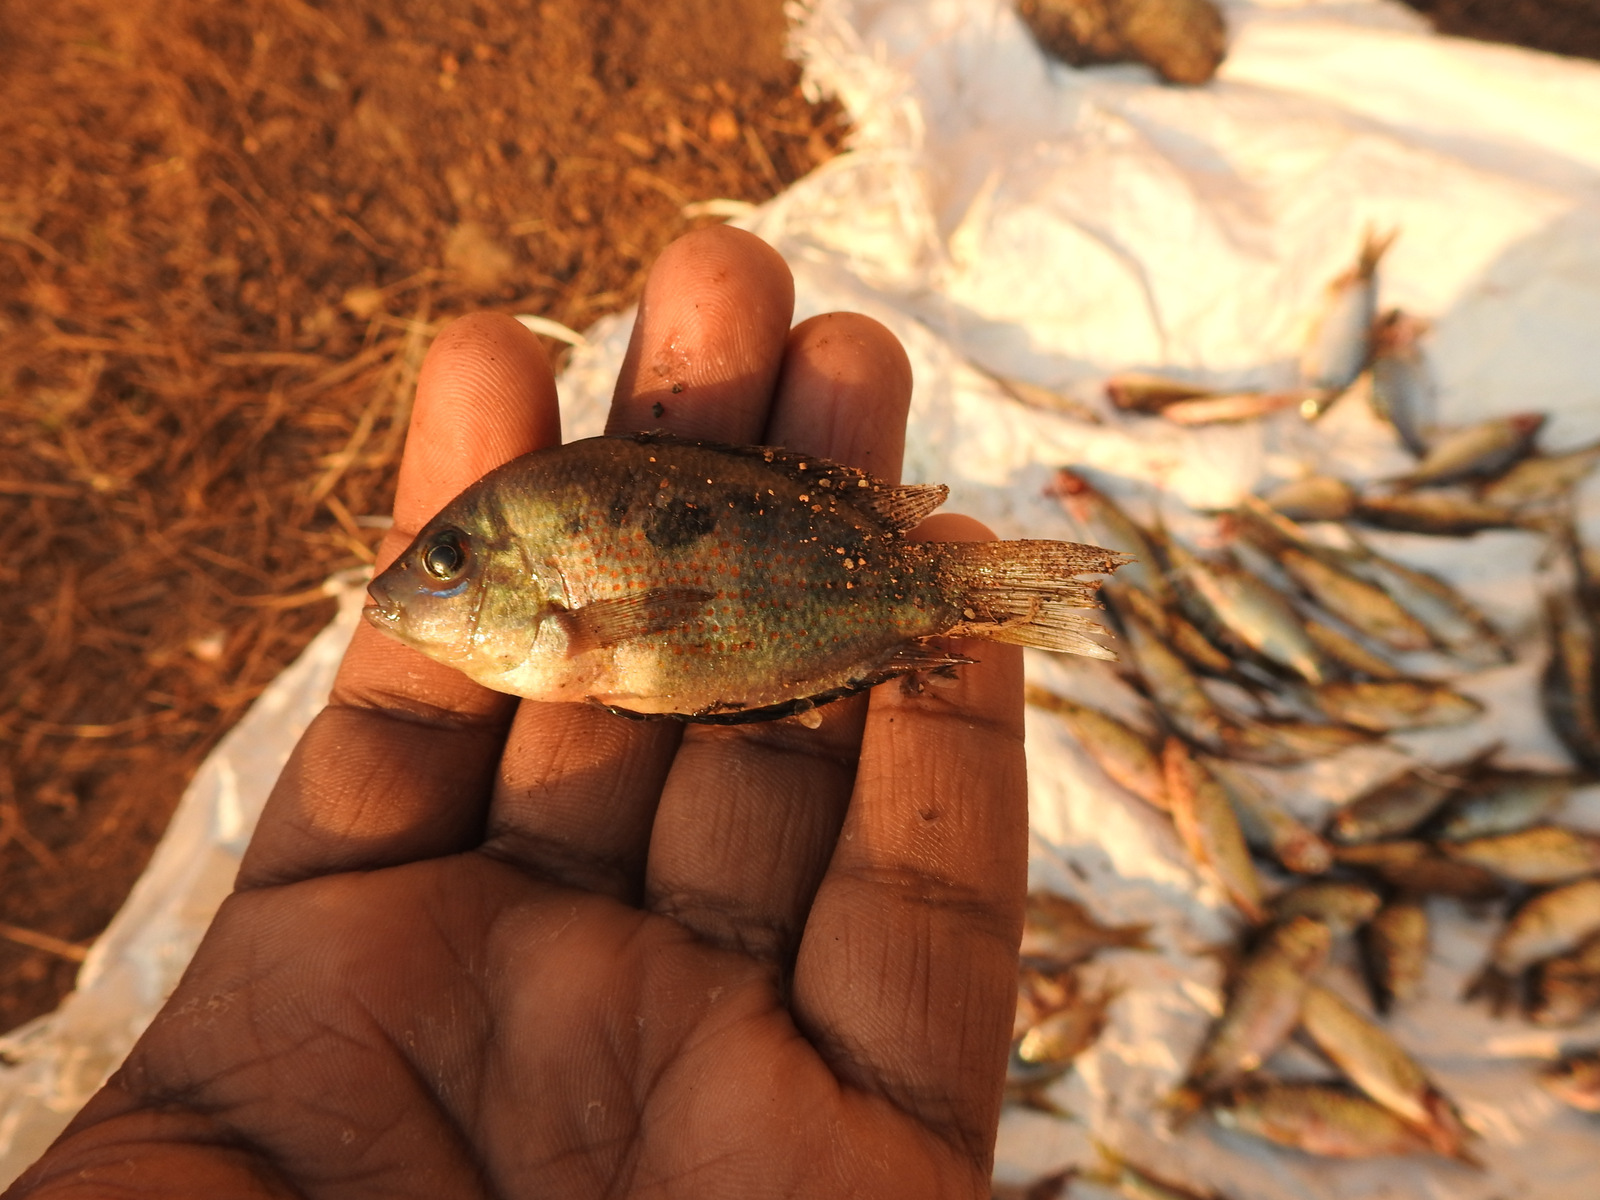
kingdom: Animalia
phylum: Chordata
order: Perciformes
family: Cichlidae
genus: Etroplus
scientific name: Etroplus maculatus
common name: Orange chromide
